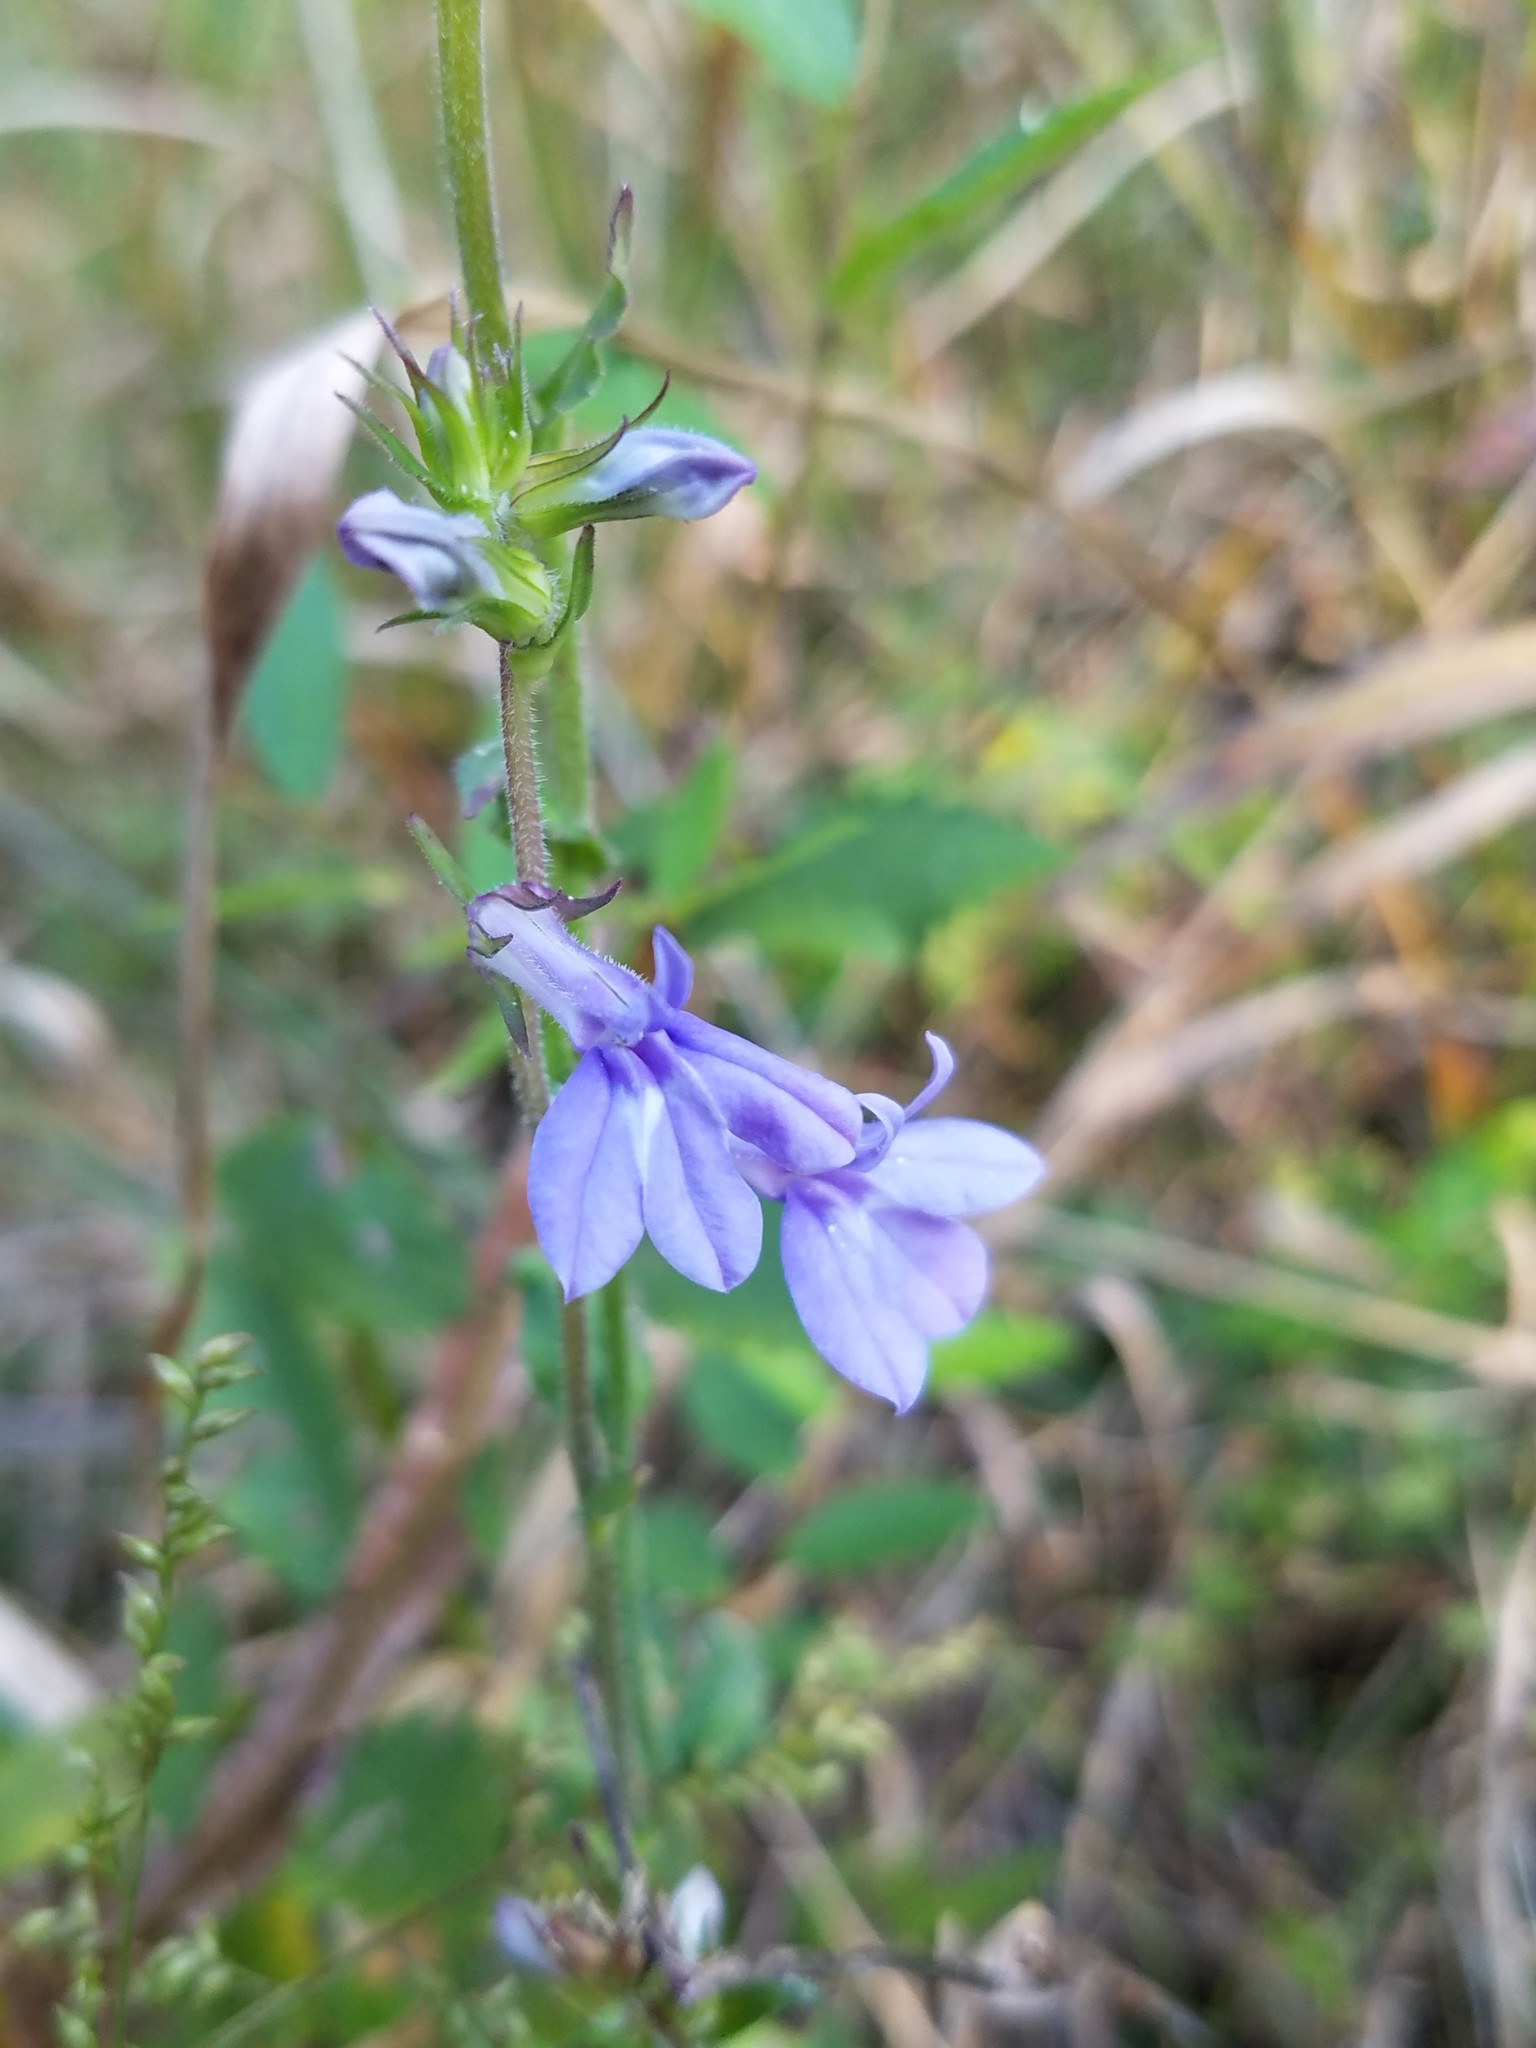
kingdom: Plantae
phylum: Tracheophyta
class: Magnoliopsida
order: Asterales
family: Campanulaceae
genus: Lobelia
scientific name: Lobelia puberula
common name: Purple dewdrop
